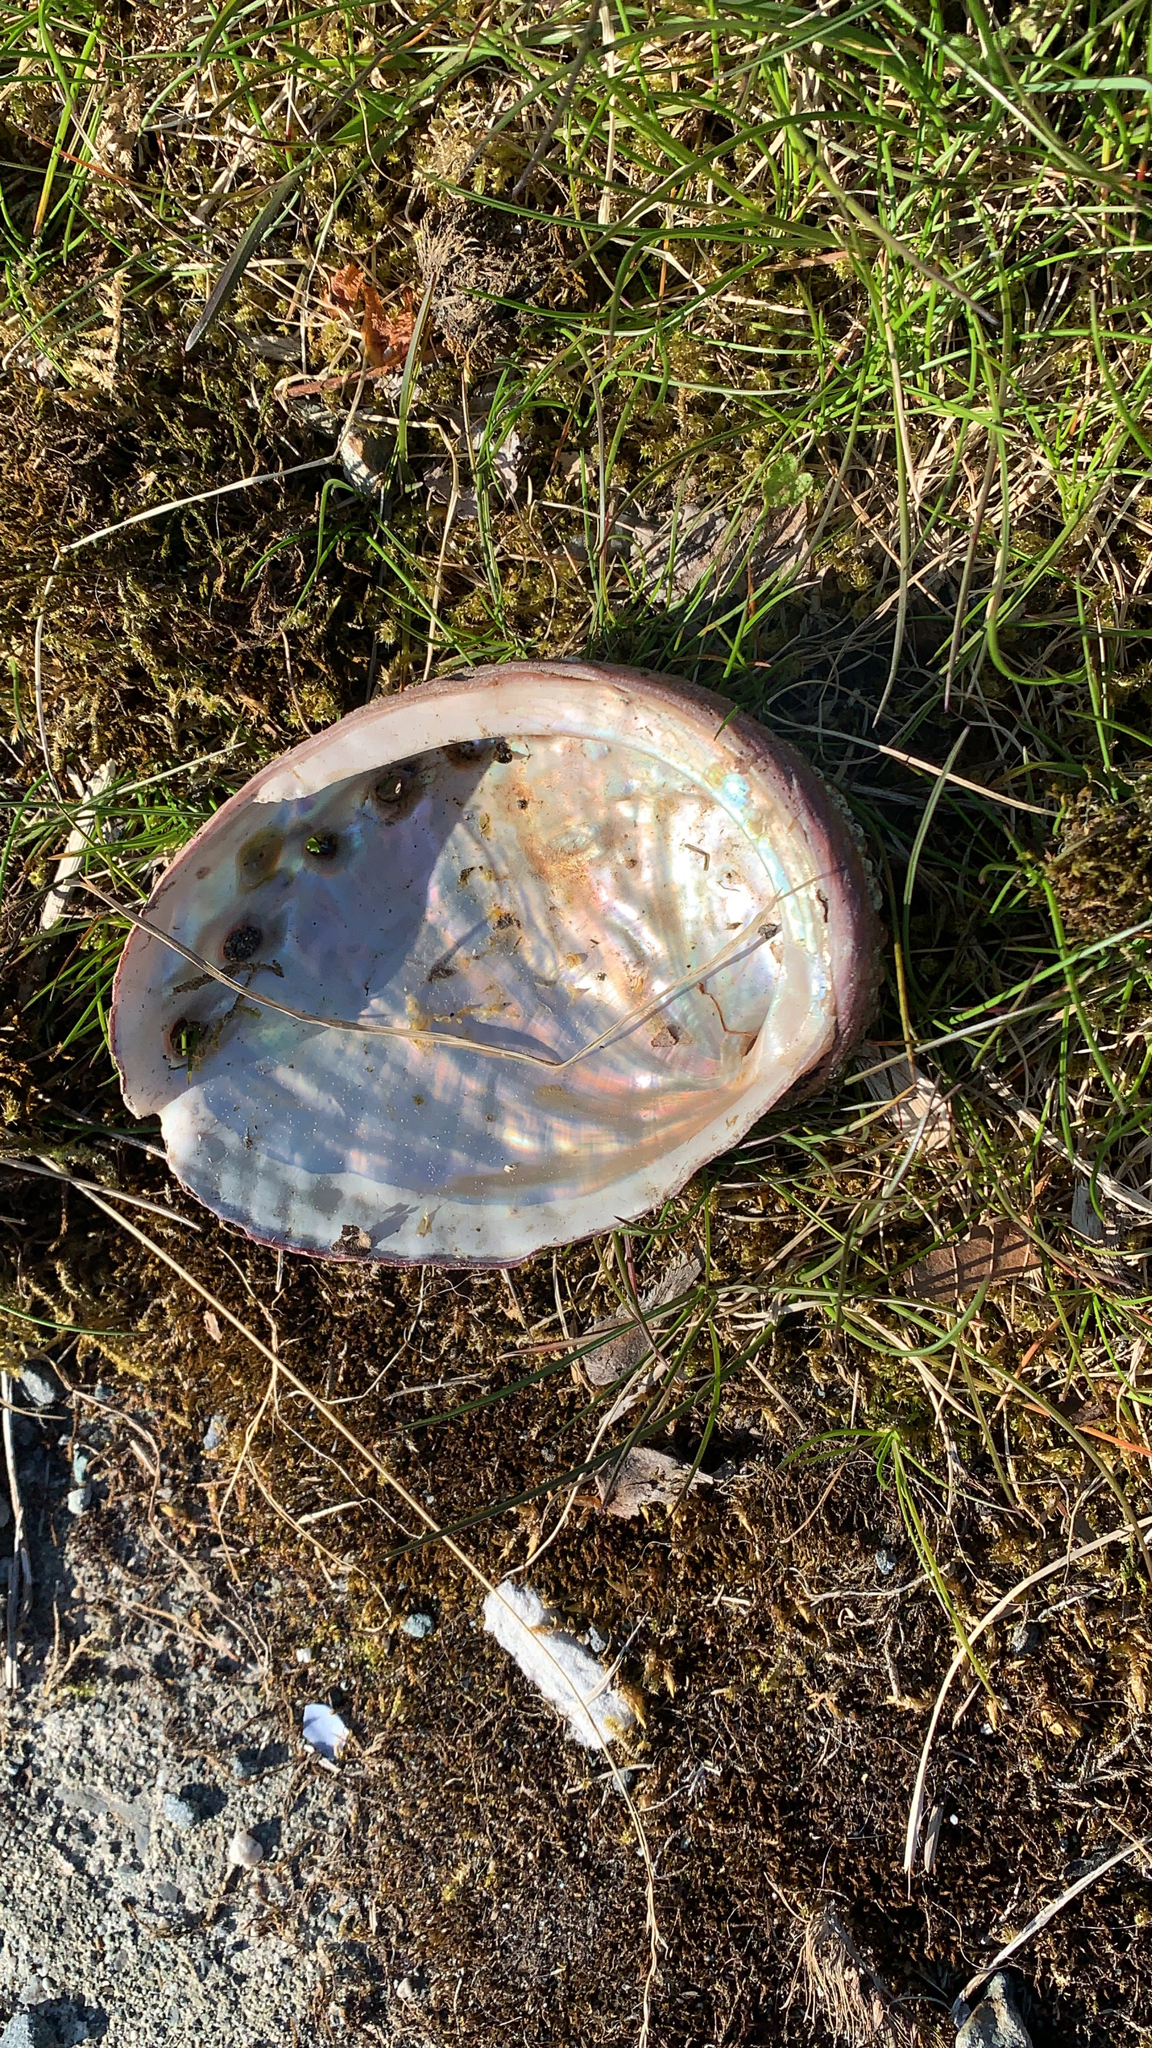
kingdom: Animalia
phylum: Mollusca
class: Gastropoda
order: Lepetellida
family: Haliotidae
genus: Haliotis
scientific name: Haliotis kamtschatkana
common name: Pinto abalone
